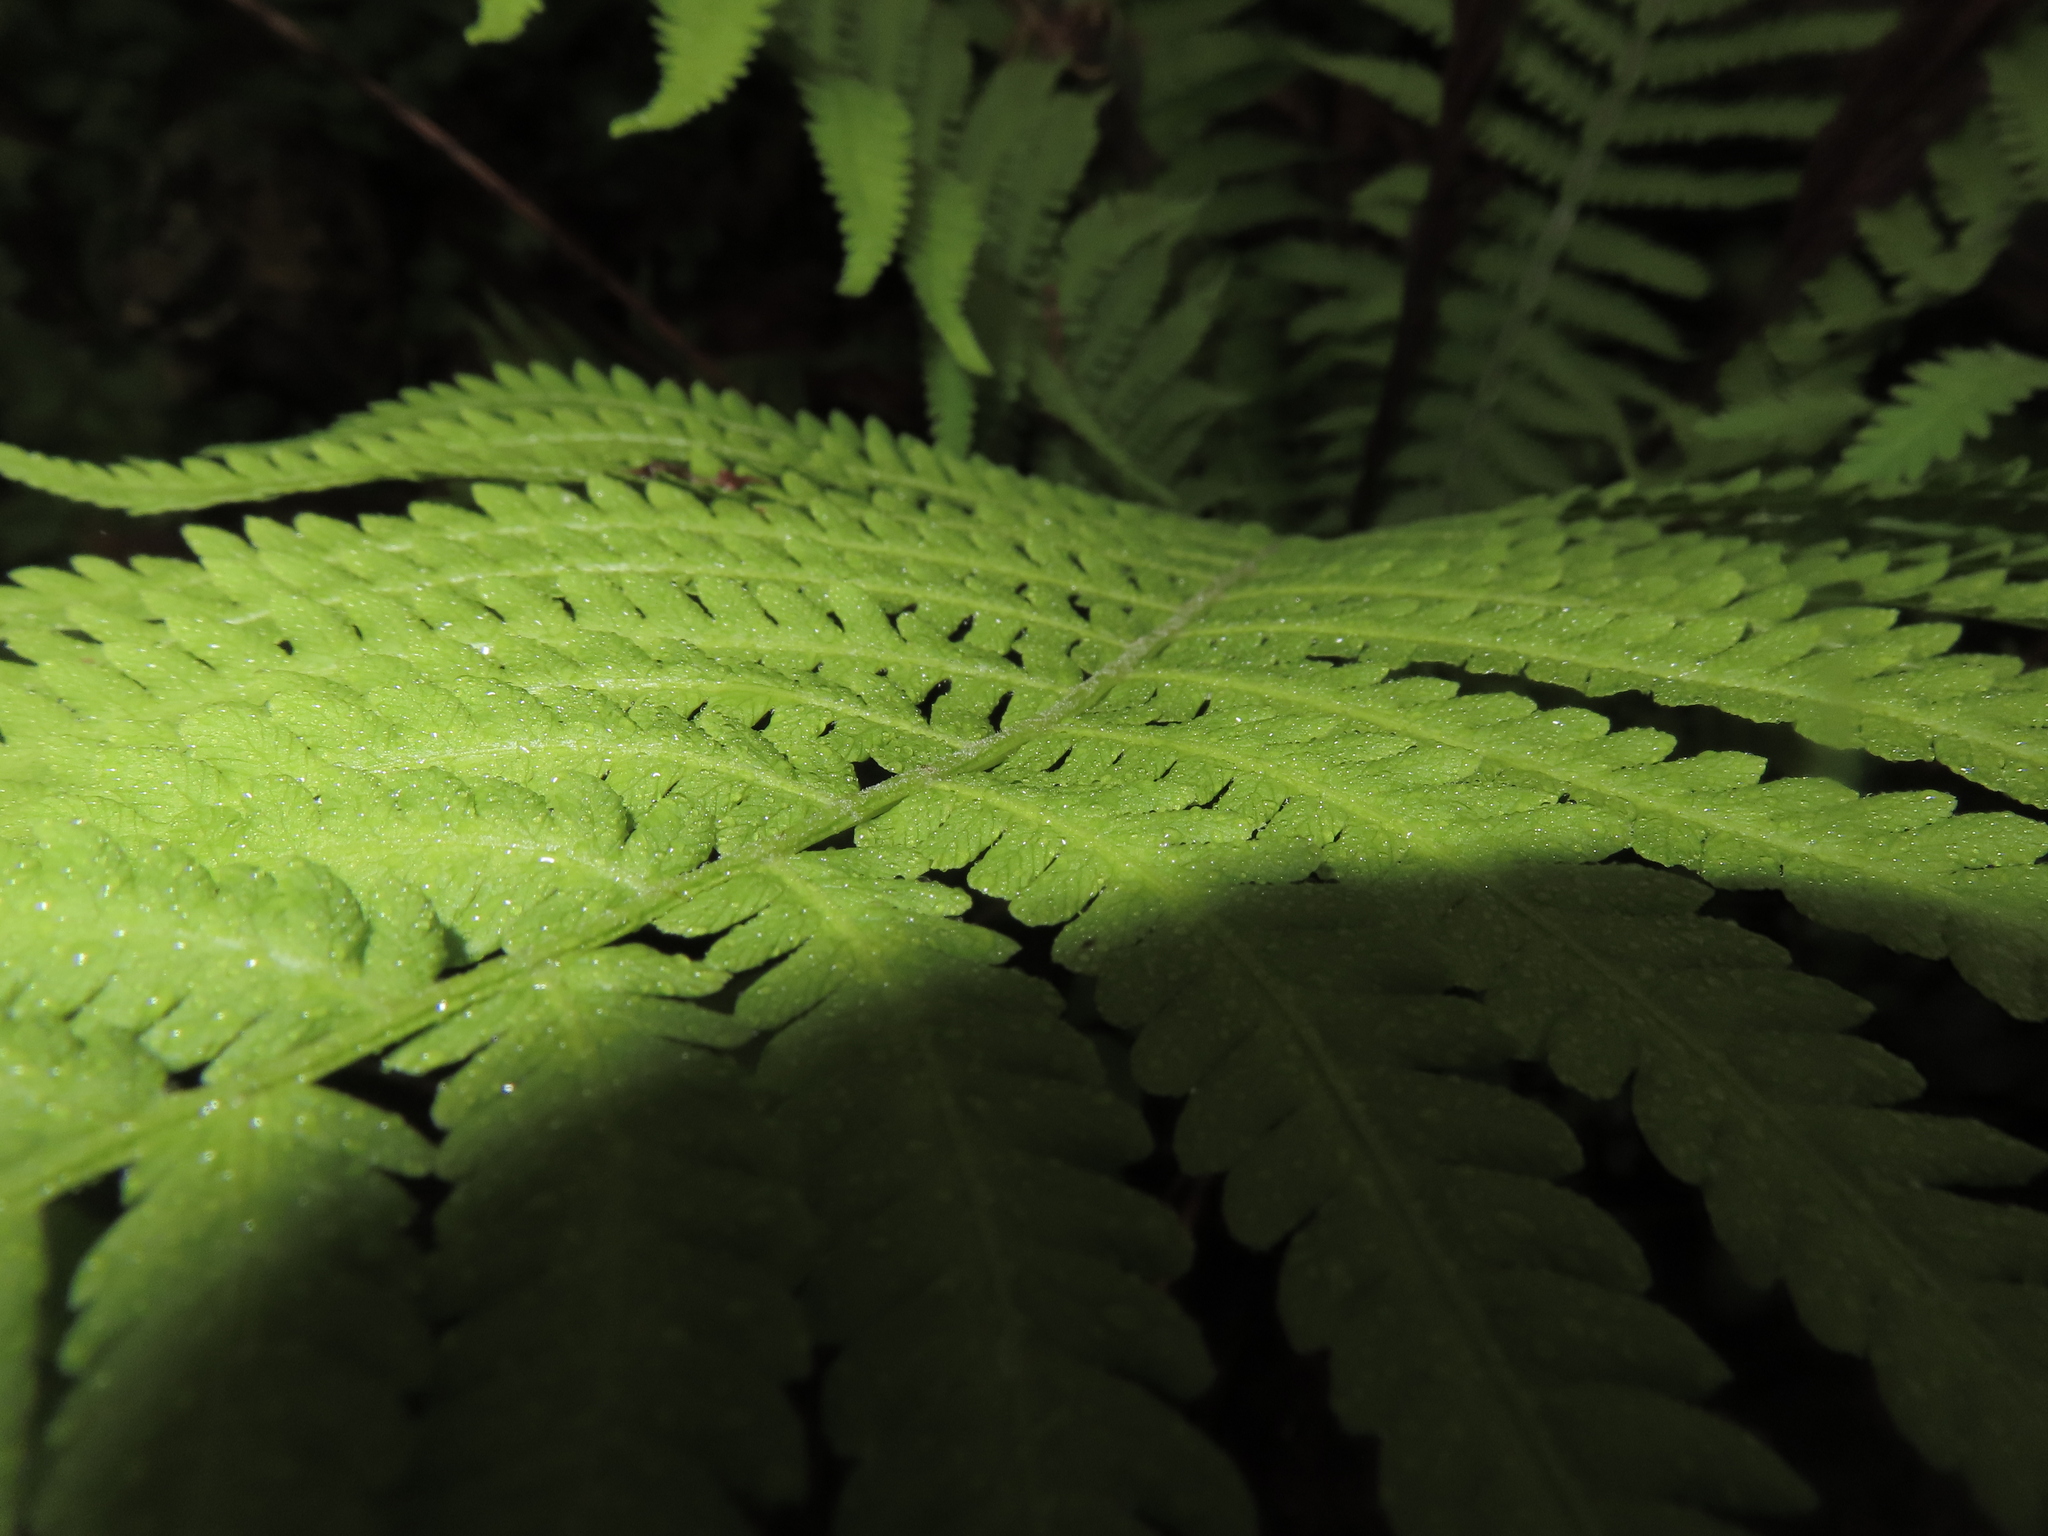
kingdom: Plantae
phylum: Tracheophyta
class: Polypodiopsida
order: Polypodiales
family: Onocleaceae
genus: Matteuccia
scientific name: Matteuccia struthiopteris
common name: Ostrich fern
